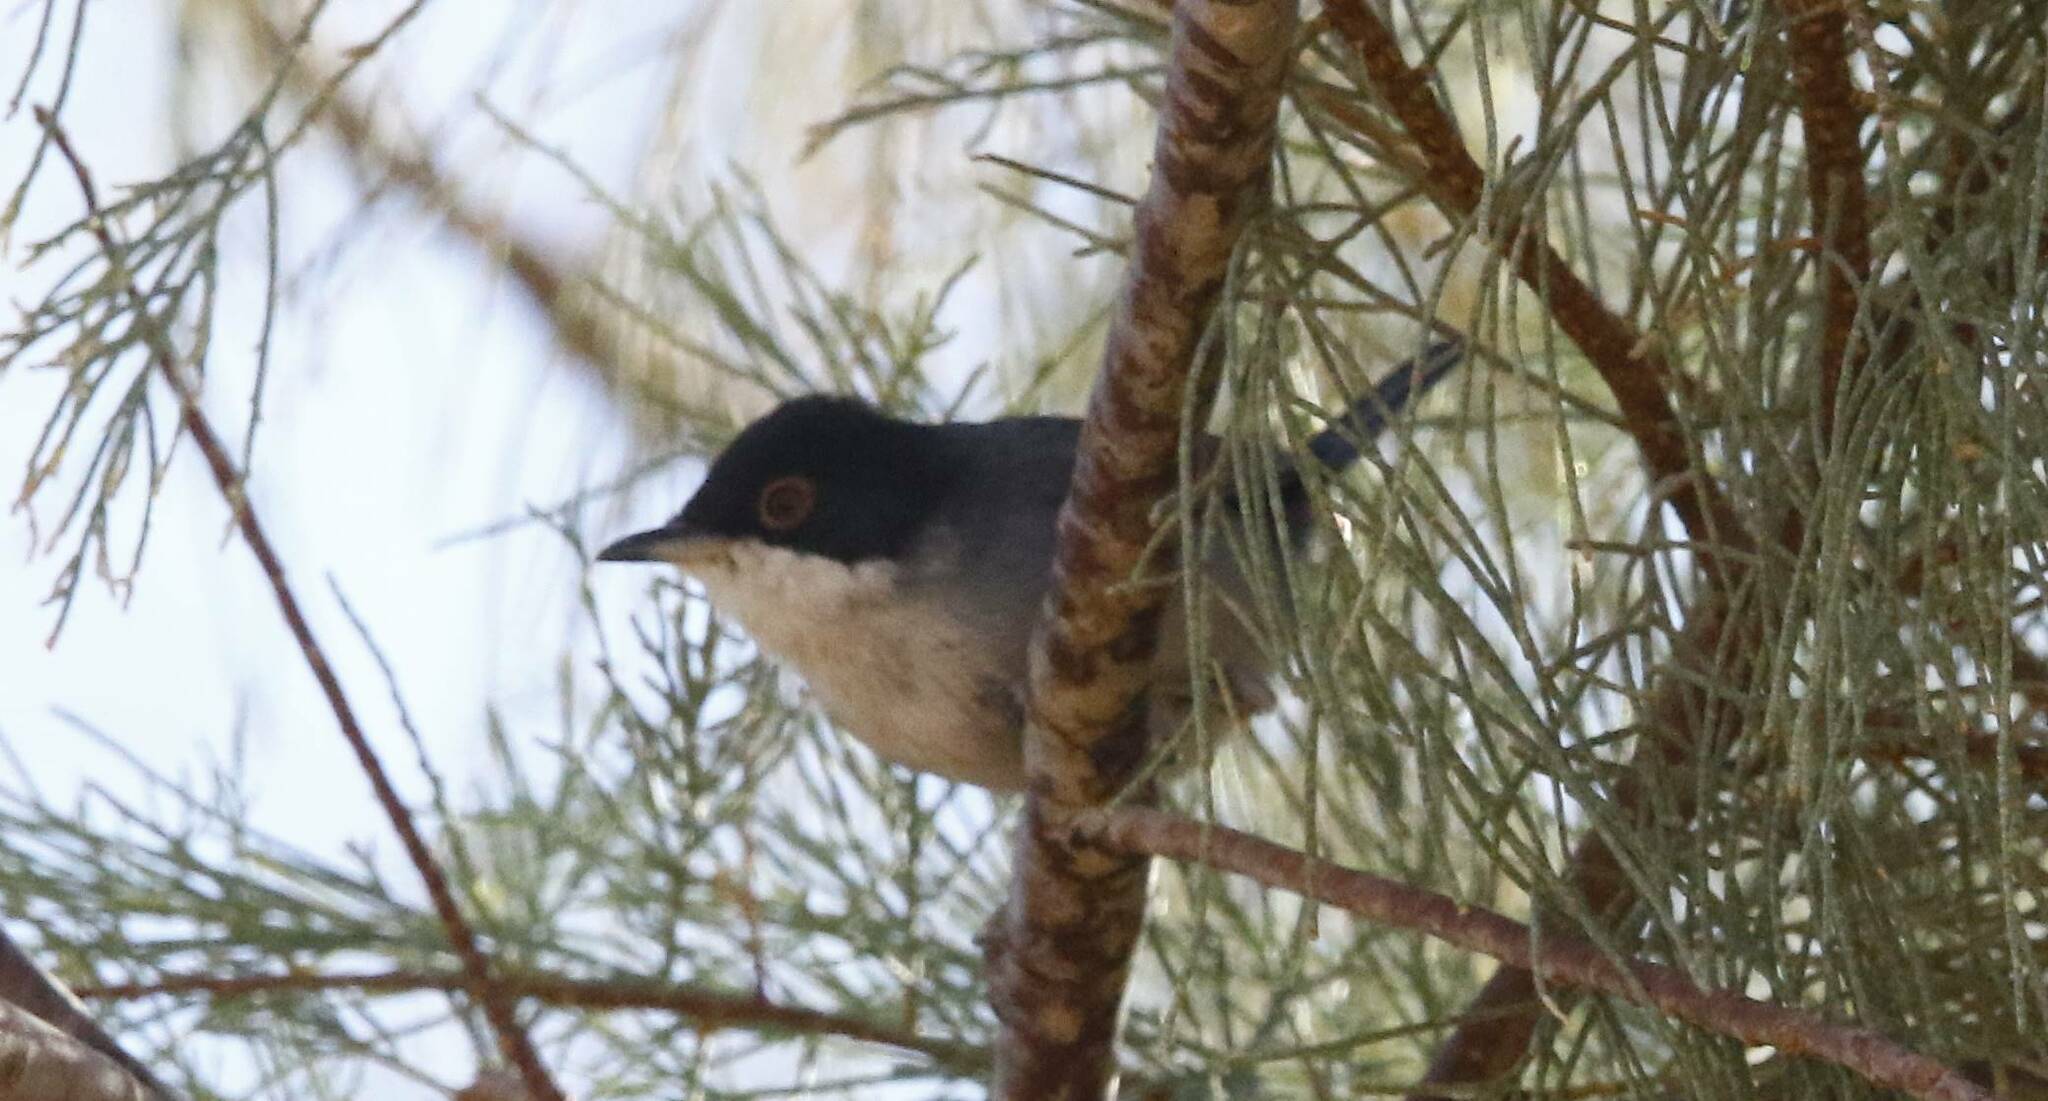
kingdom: Animalia
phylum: Chordata
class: Aves
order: Passeriformes
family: Sylviidae
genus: Curruca
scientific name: Curruca melanocephala
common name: Sardinian warbler
